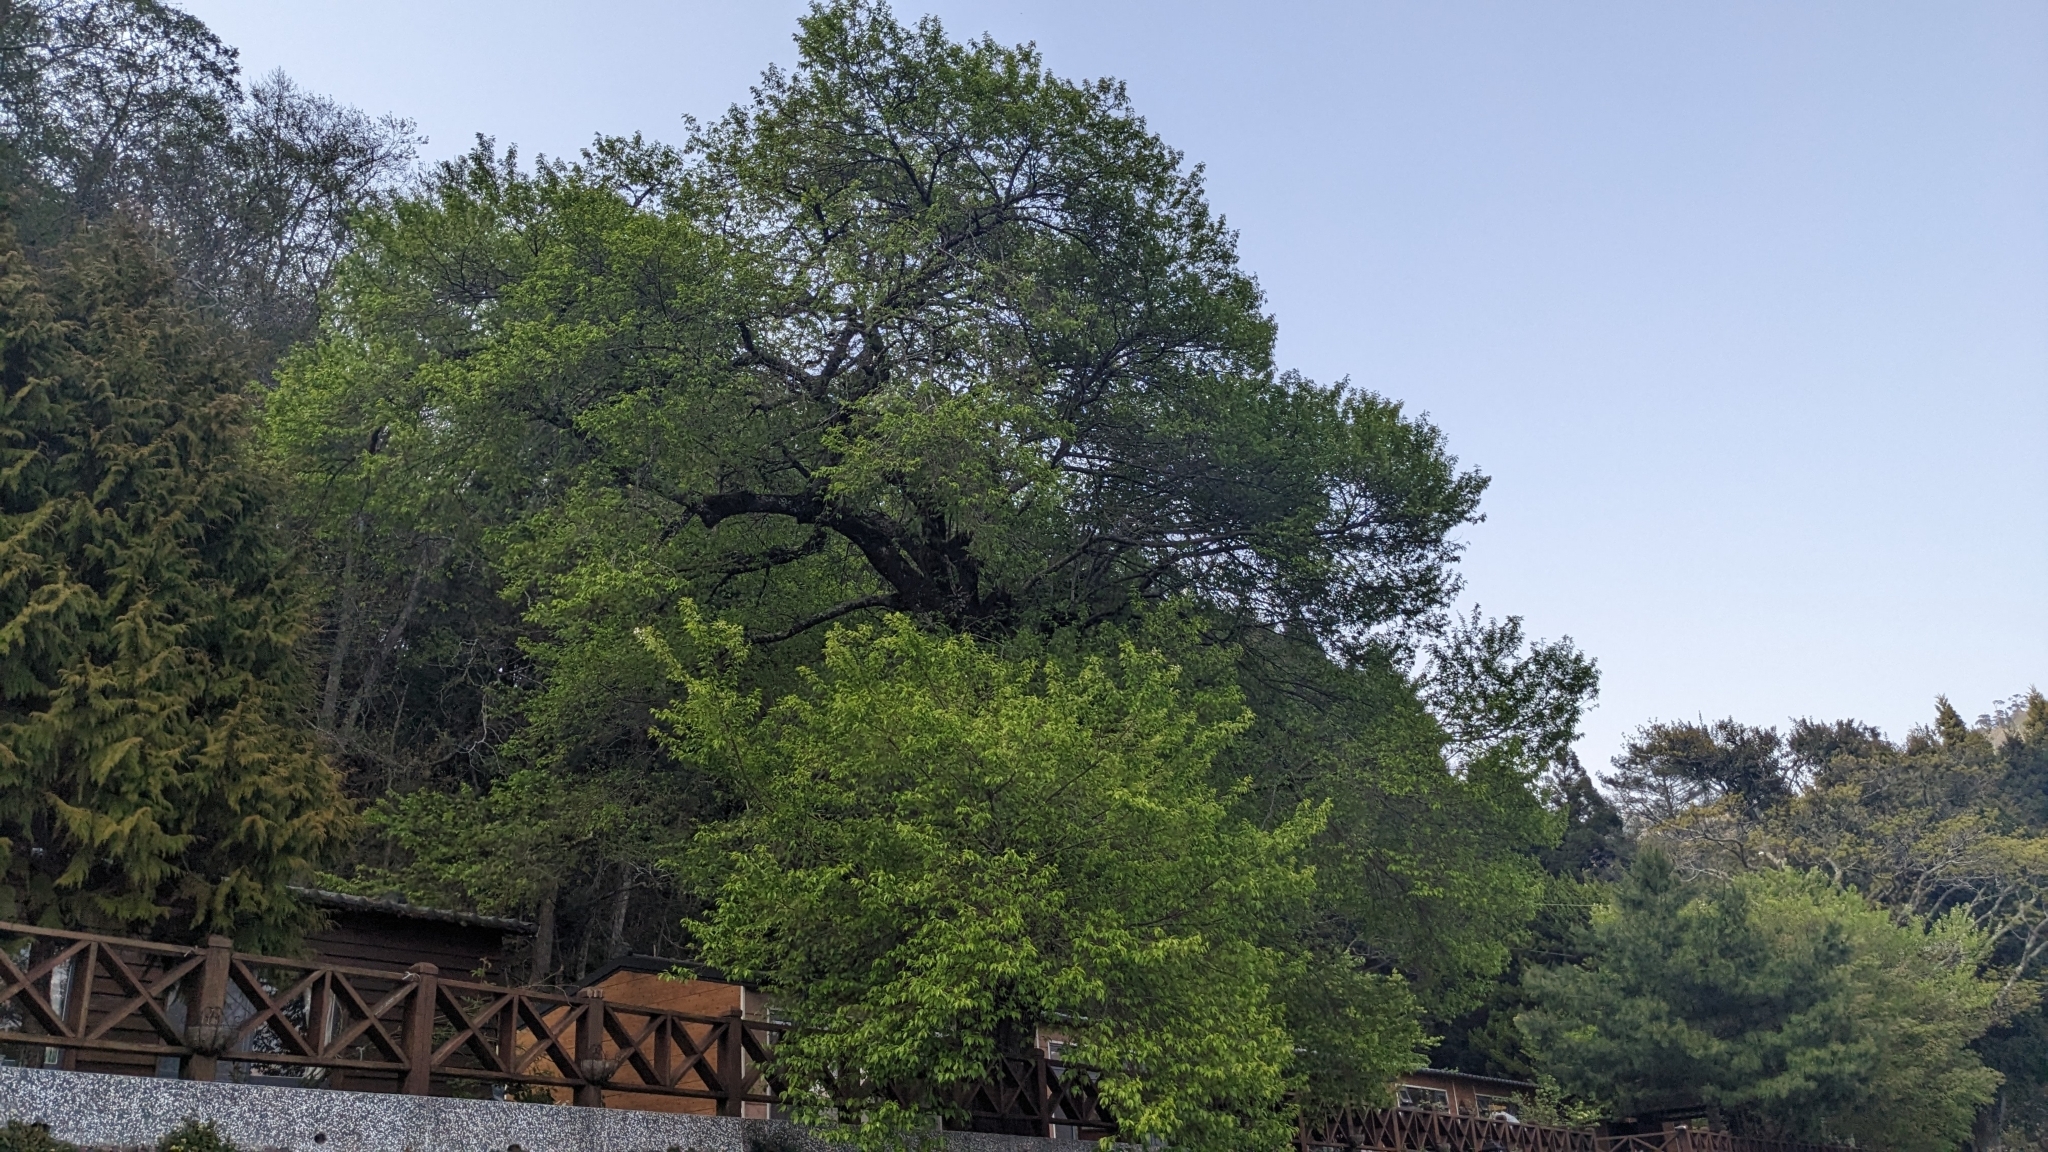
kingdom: Plantae
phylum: Tracheophyta
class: Magnoliopsida
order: Rosales
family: Rosaceae
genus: Prunus
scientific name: Prunus itosakura
